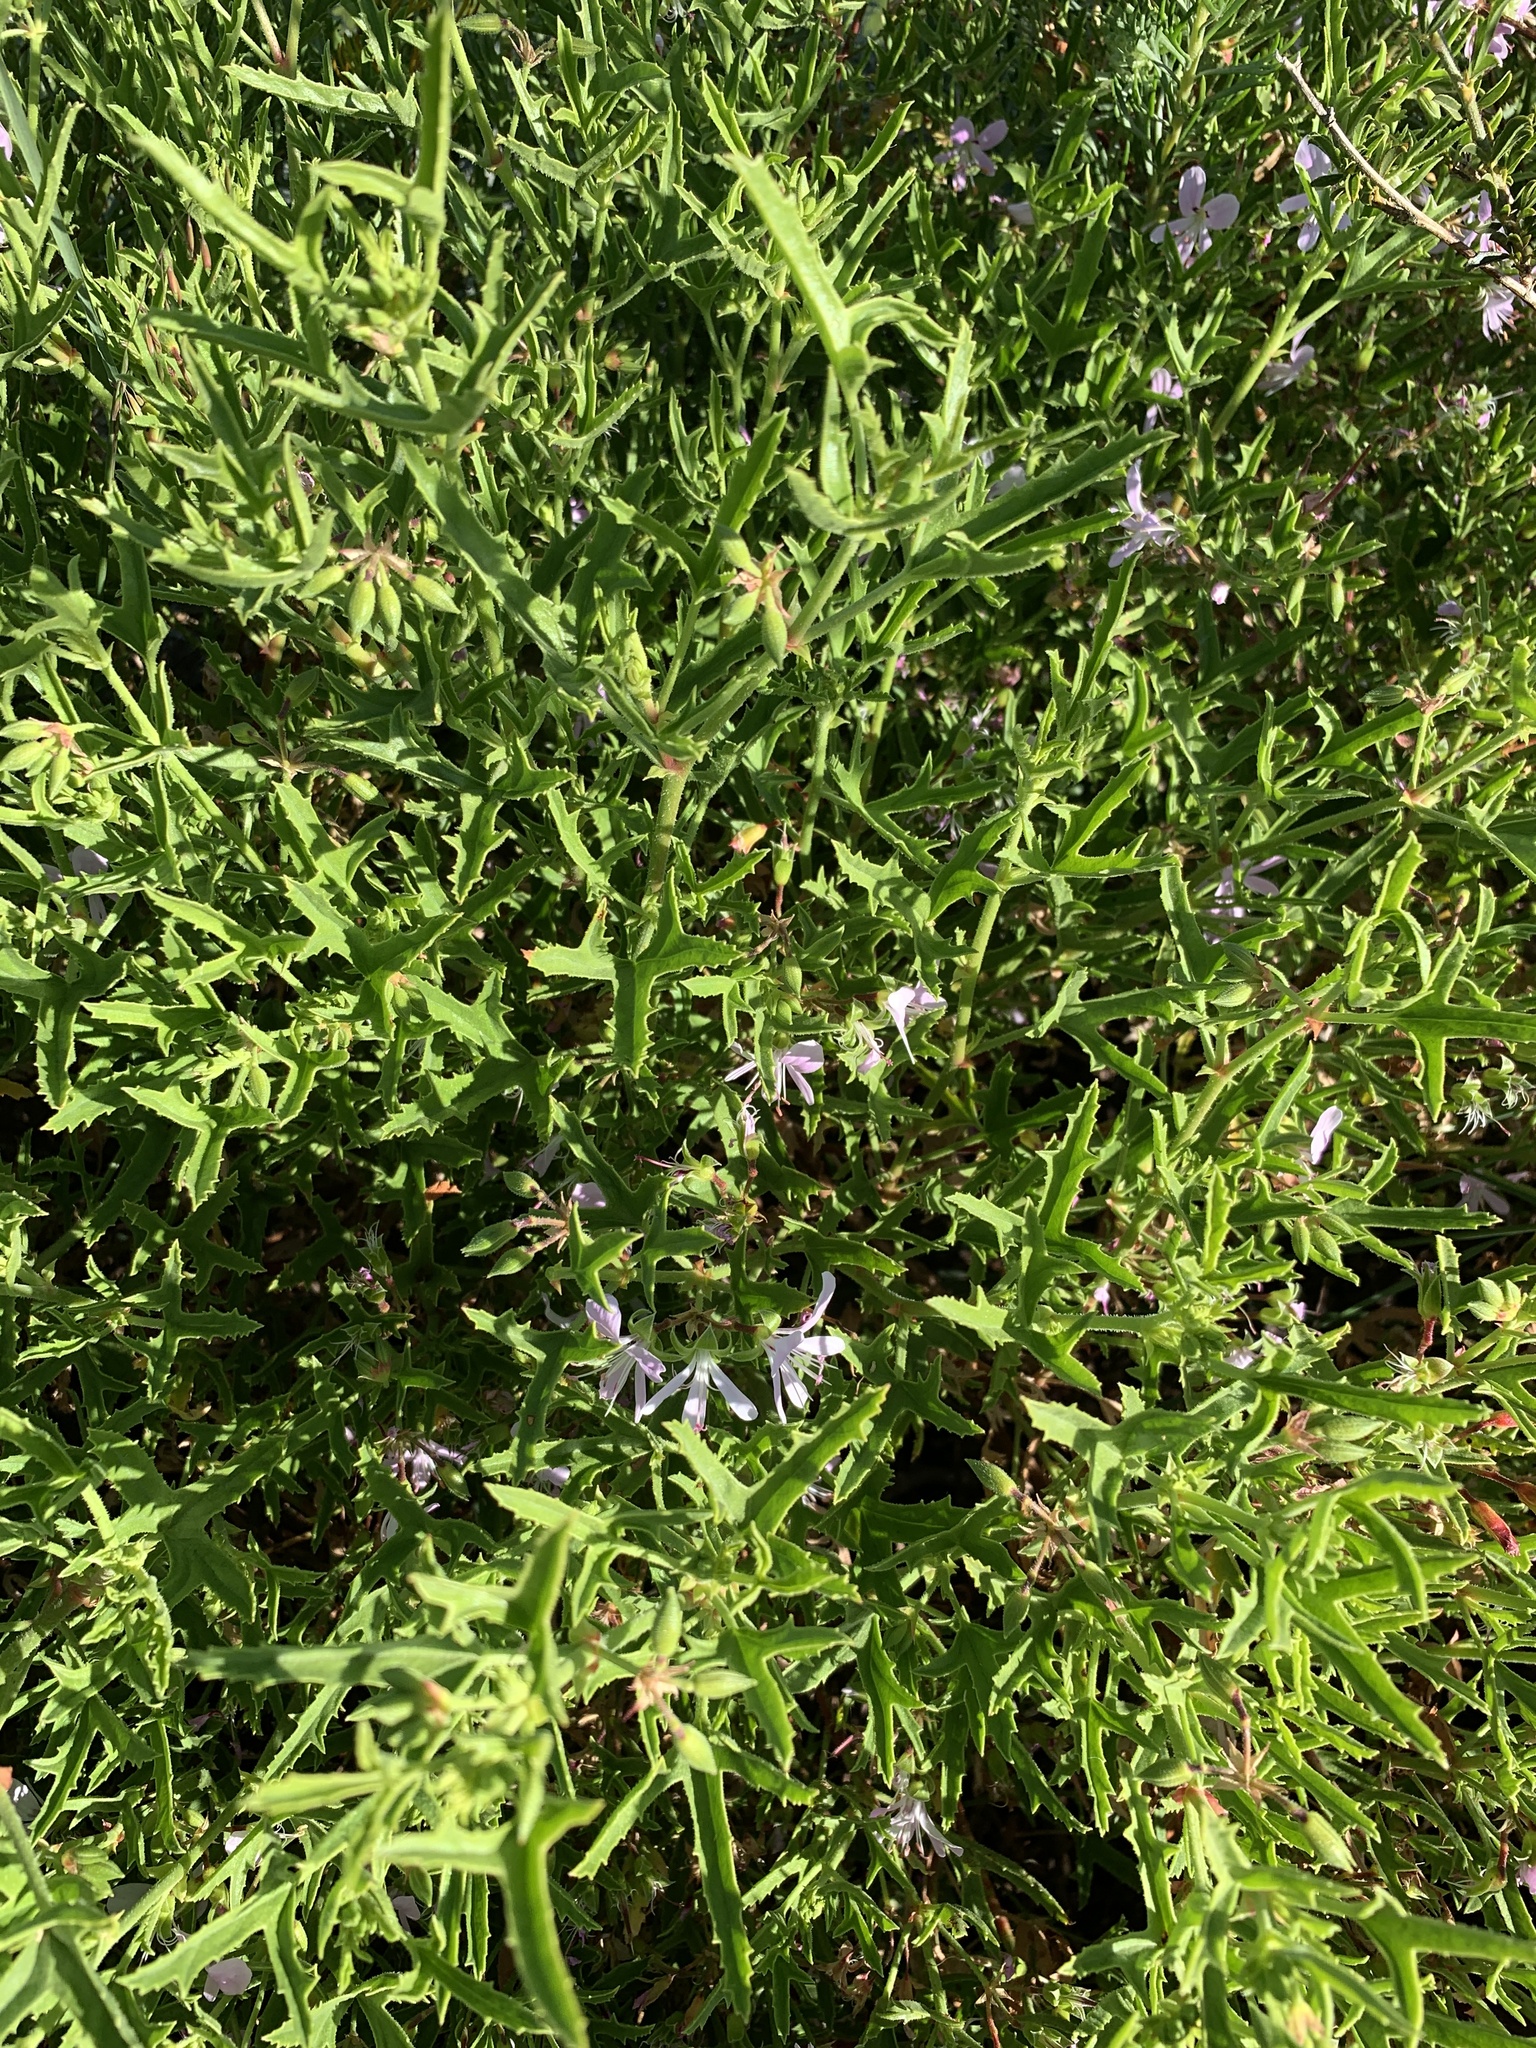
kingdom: Plantae
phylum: Tracheophyta
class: Magnoliopsida
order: Geraniales
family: Geraniaceae
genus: Pelargonium
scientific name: Pelargonium scabrum
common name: Apricot geranium
